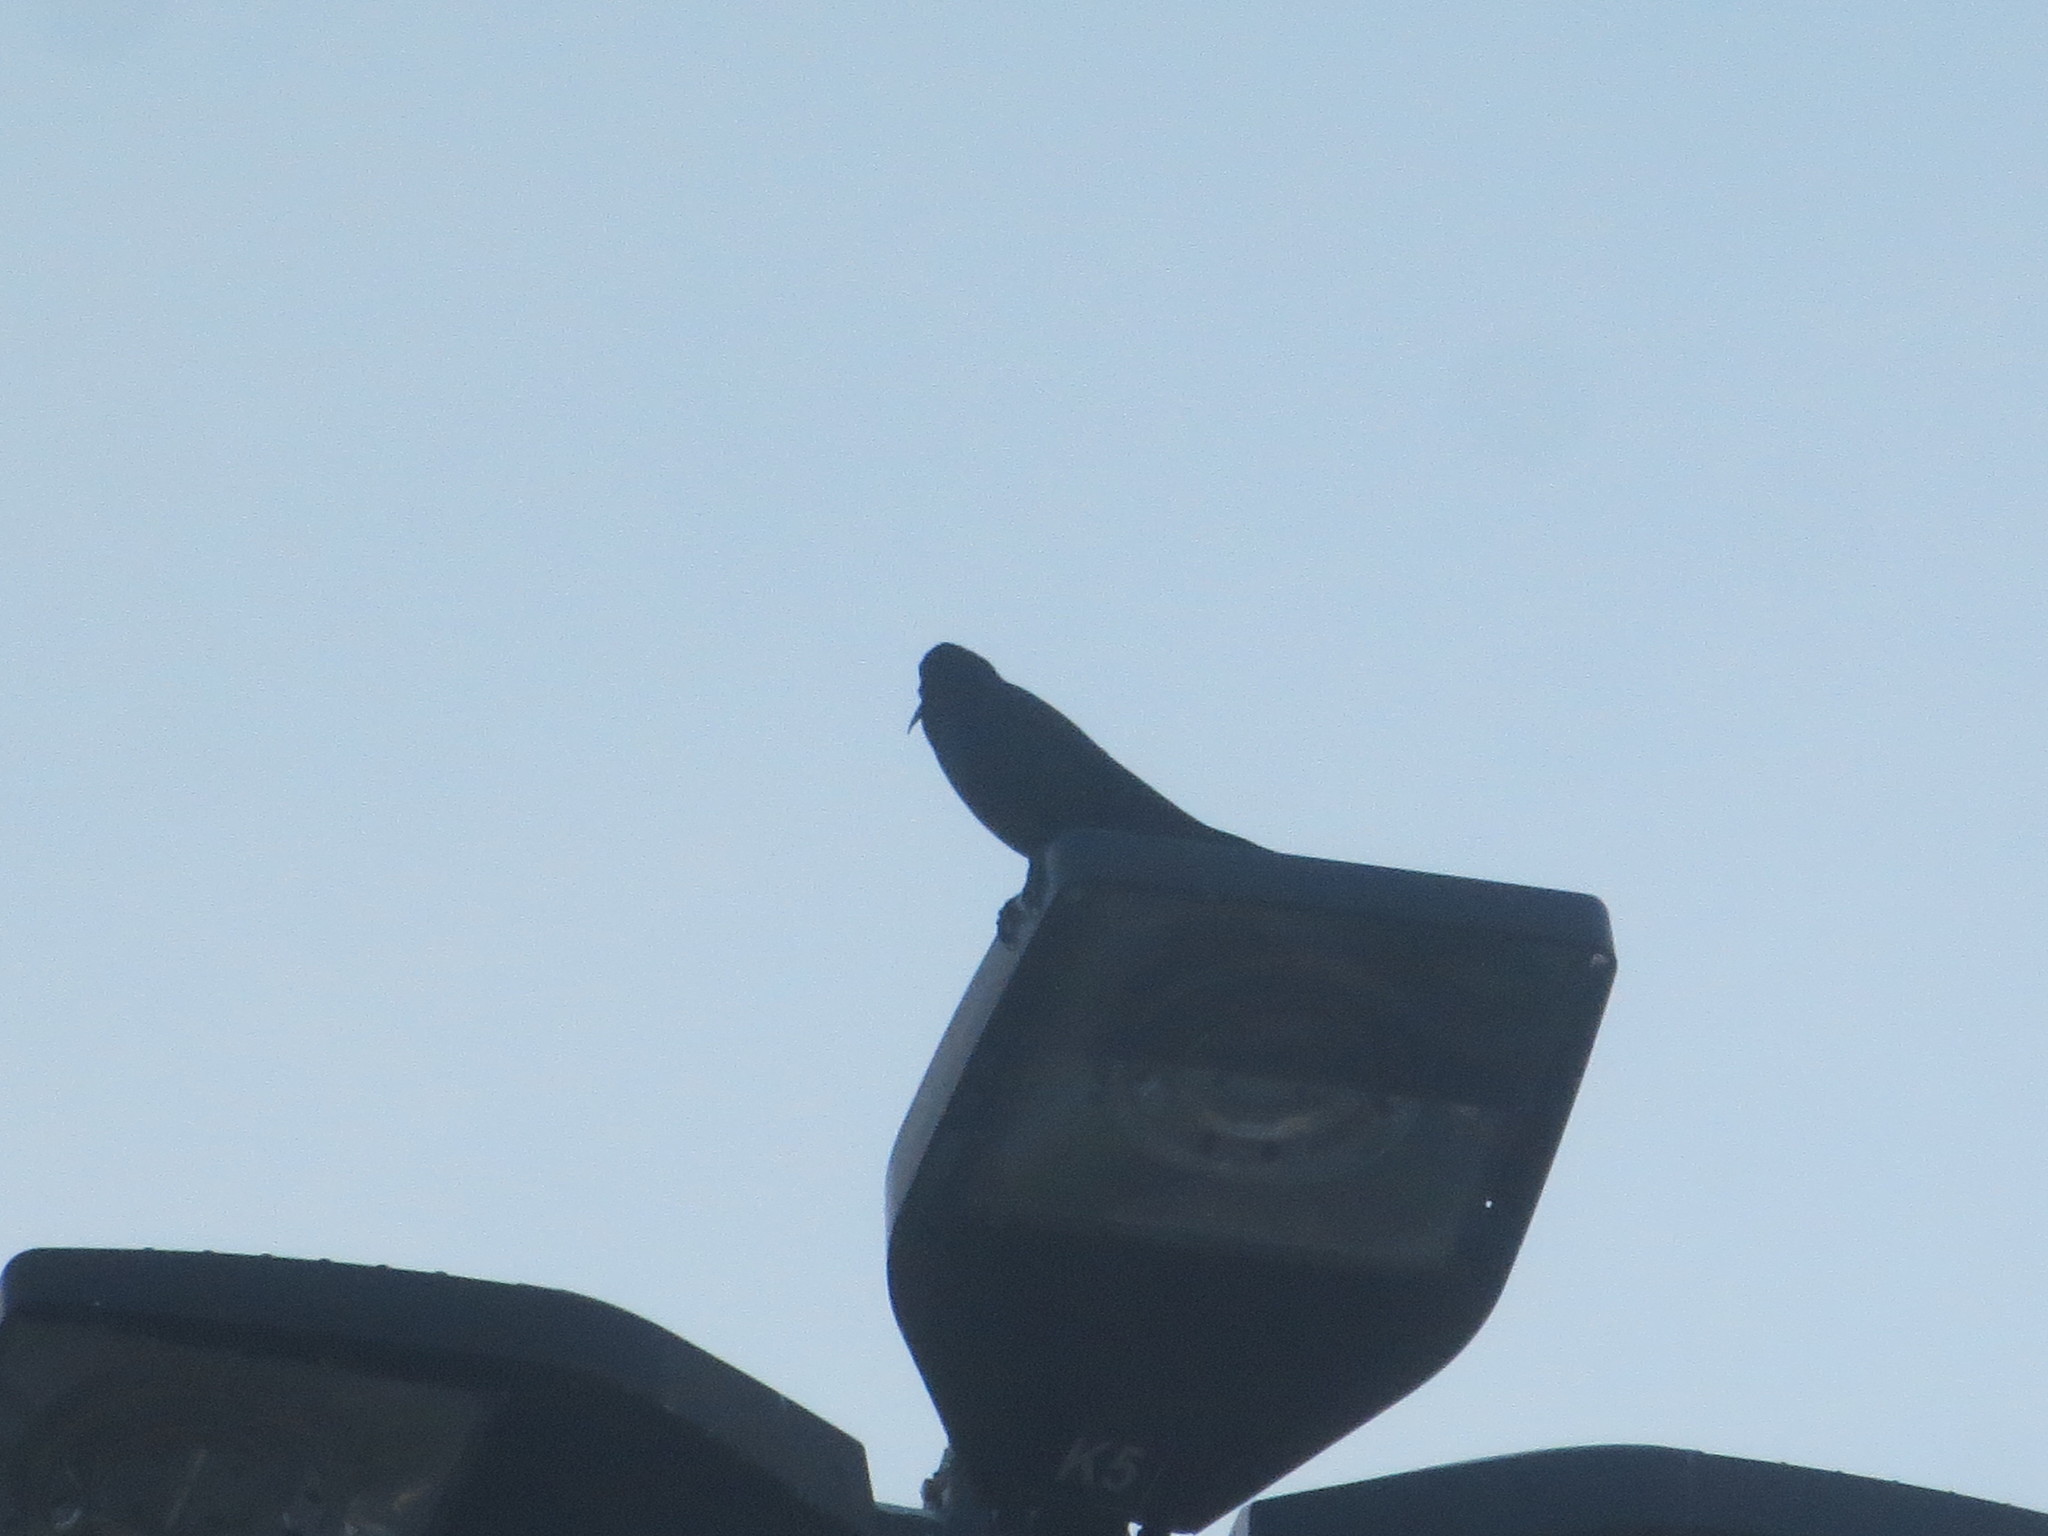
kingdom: Animalia
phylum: Chordata
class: Aves
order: Passeriformes
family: Icteridae
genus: Quiscalus
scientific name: Quiscalus major
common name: Boat-tailed grackle
